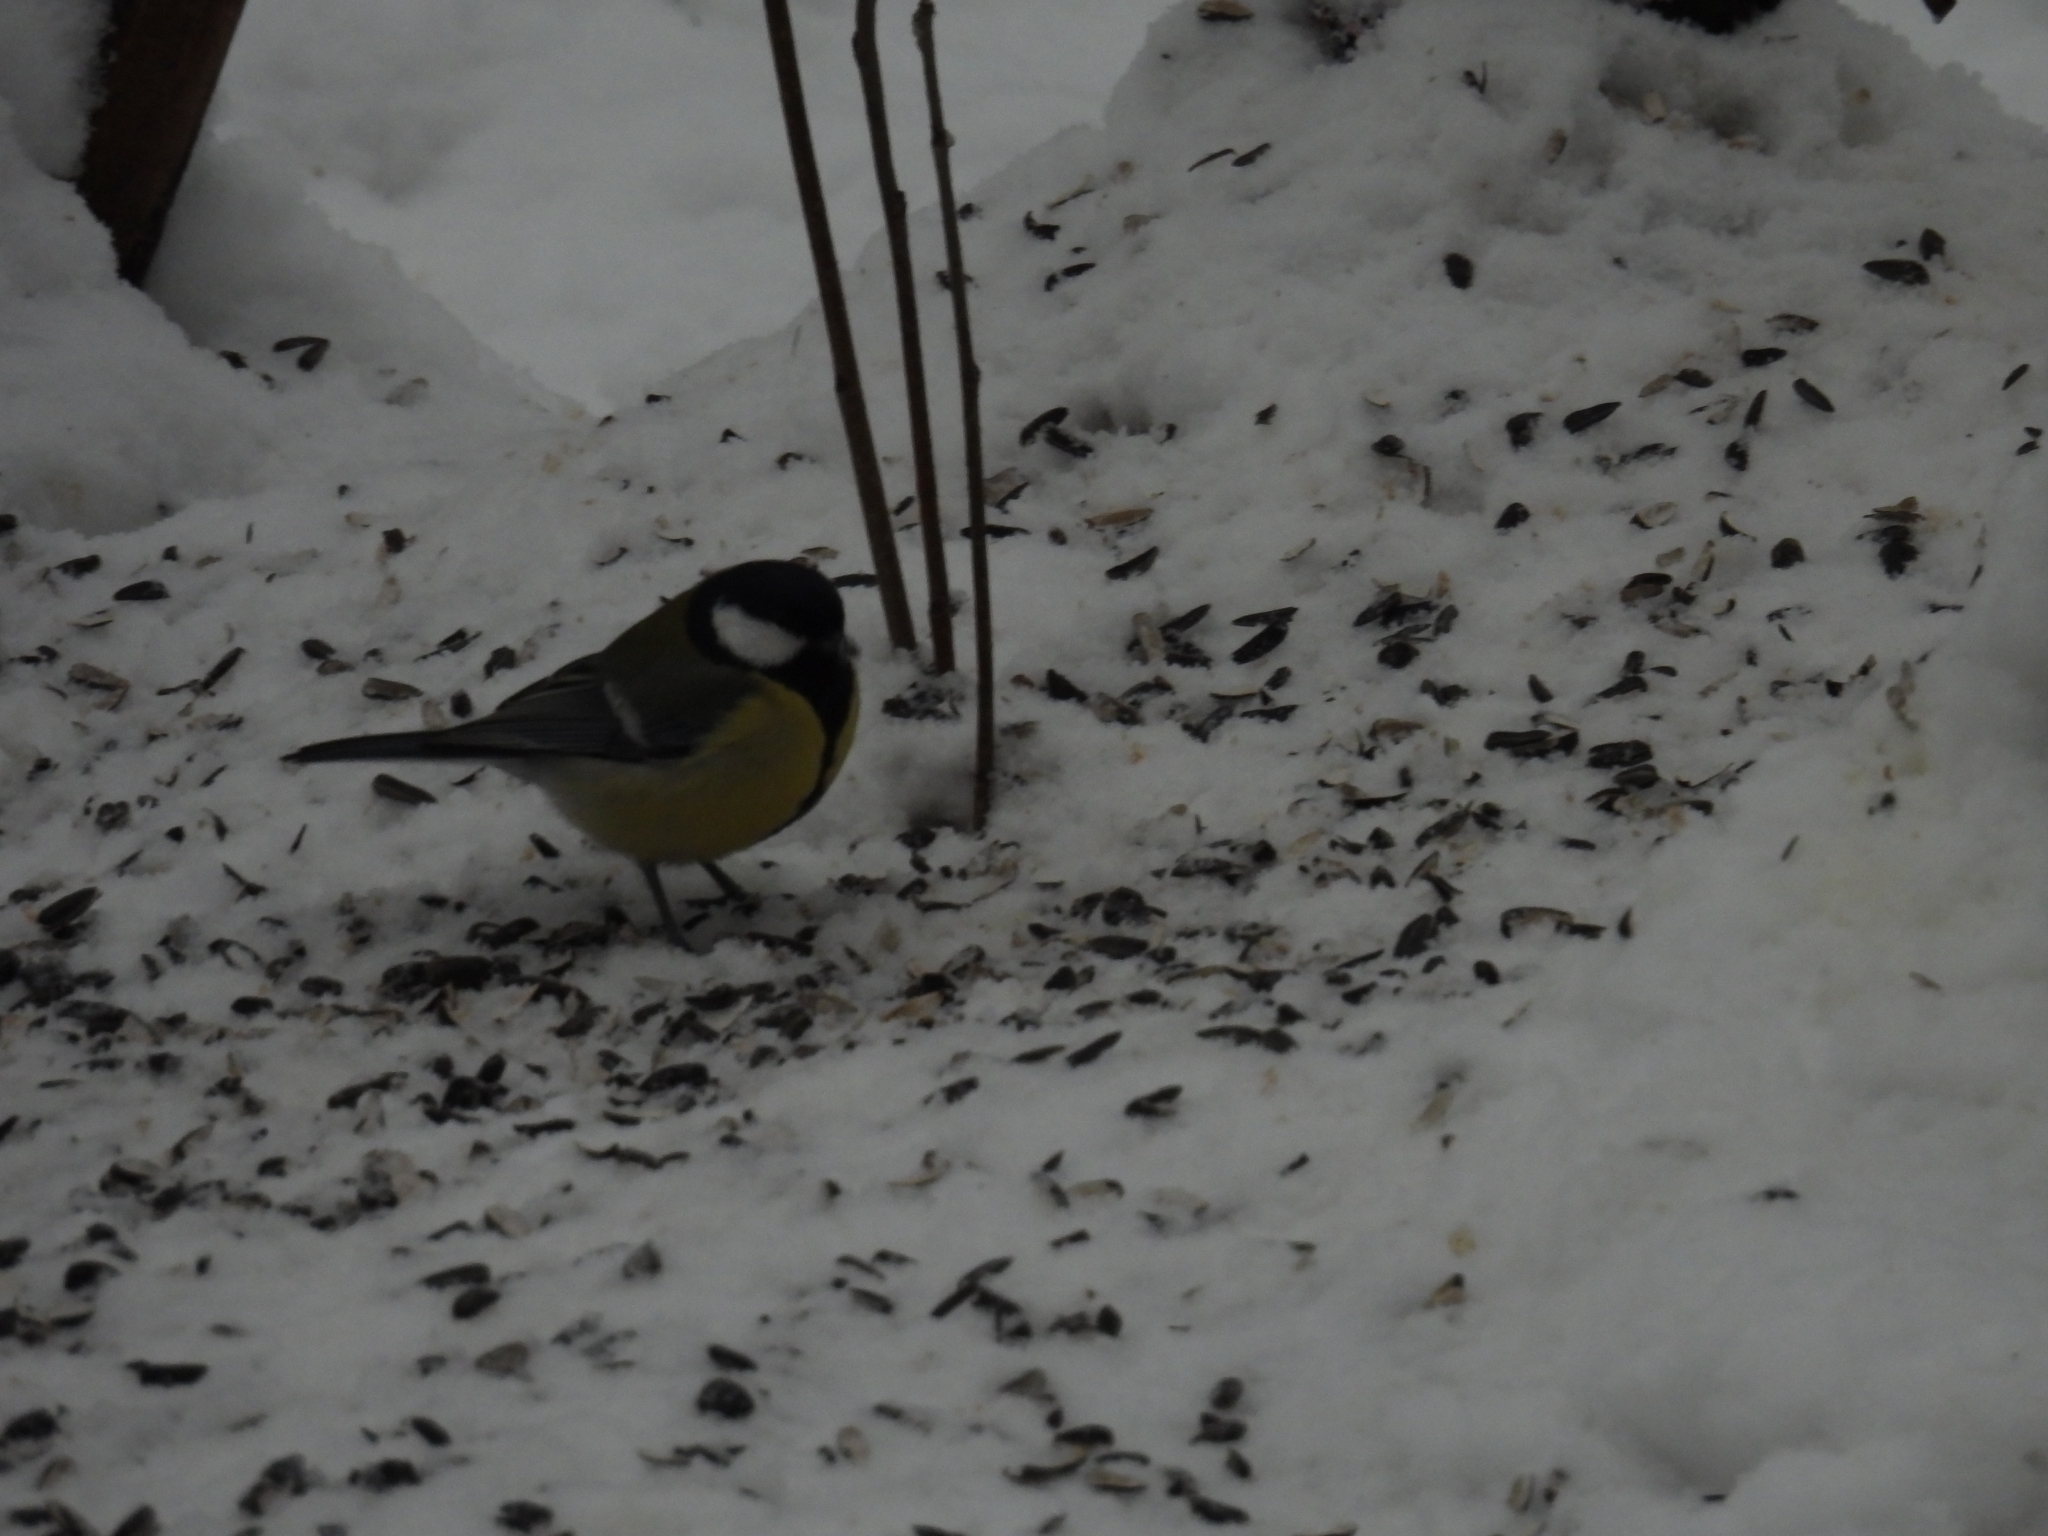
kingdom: Animalia
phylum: Chordata
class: Aves
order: Passeriformes
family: Paridae
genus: Parus
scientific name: Parus major
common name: Great tit
